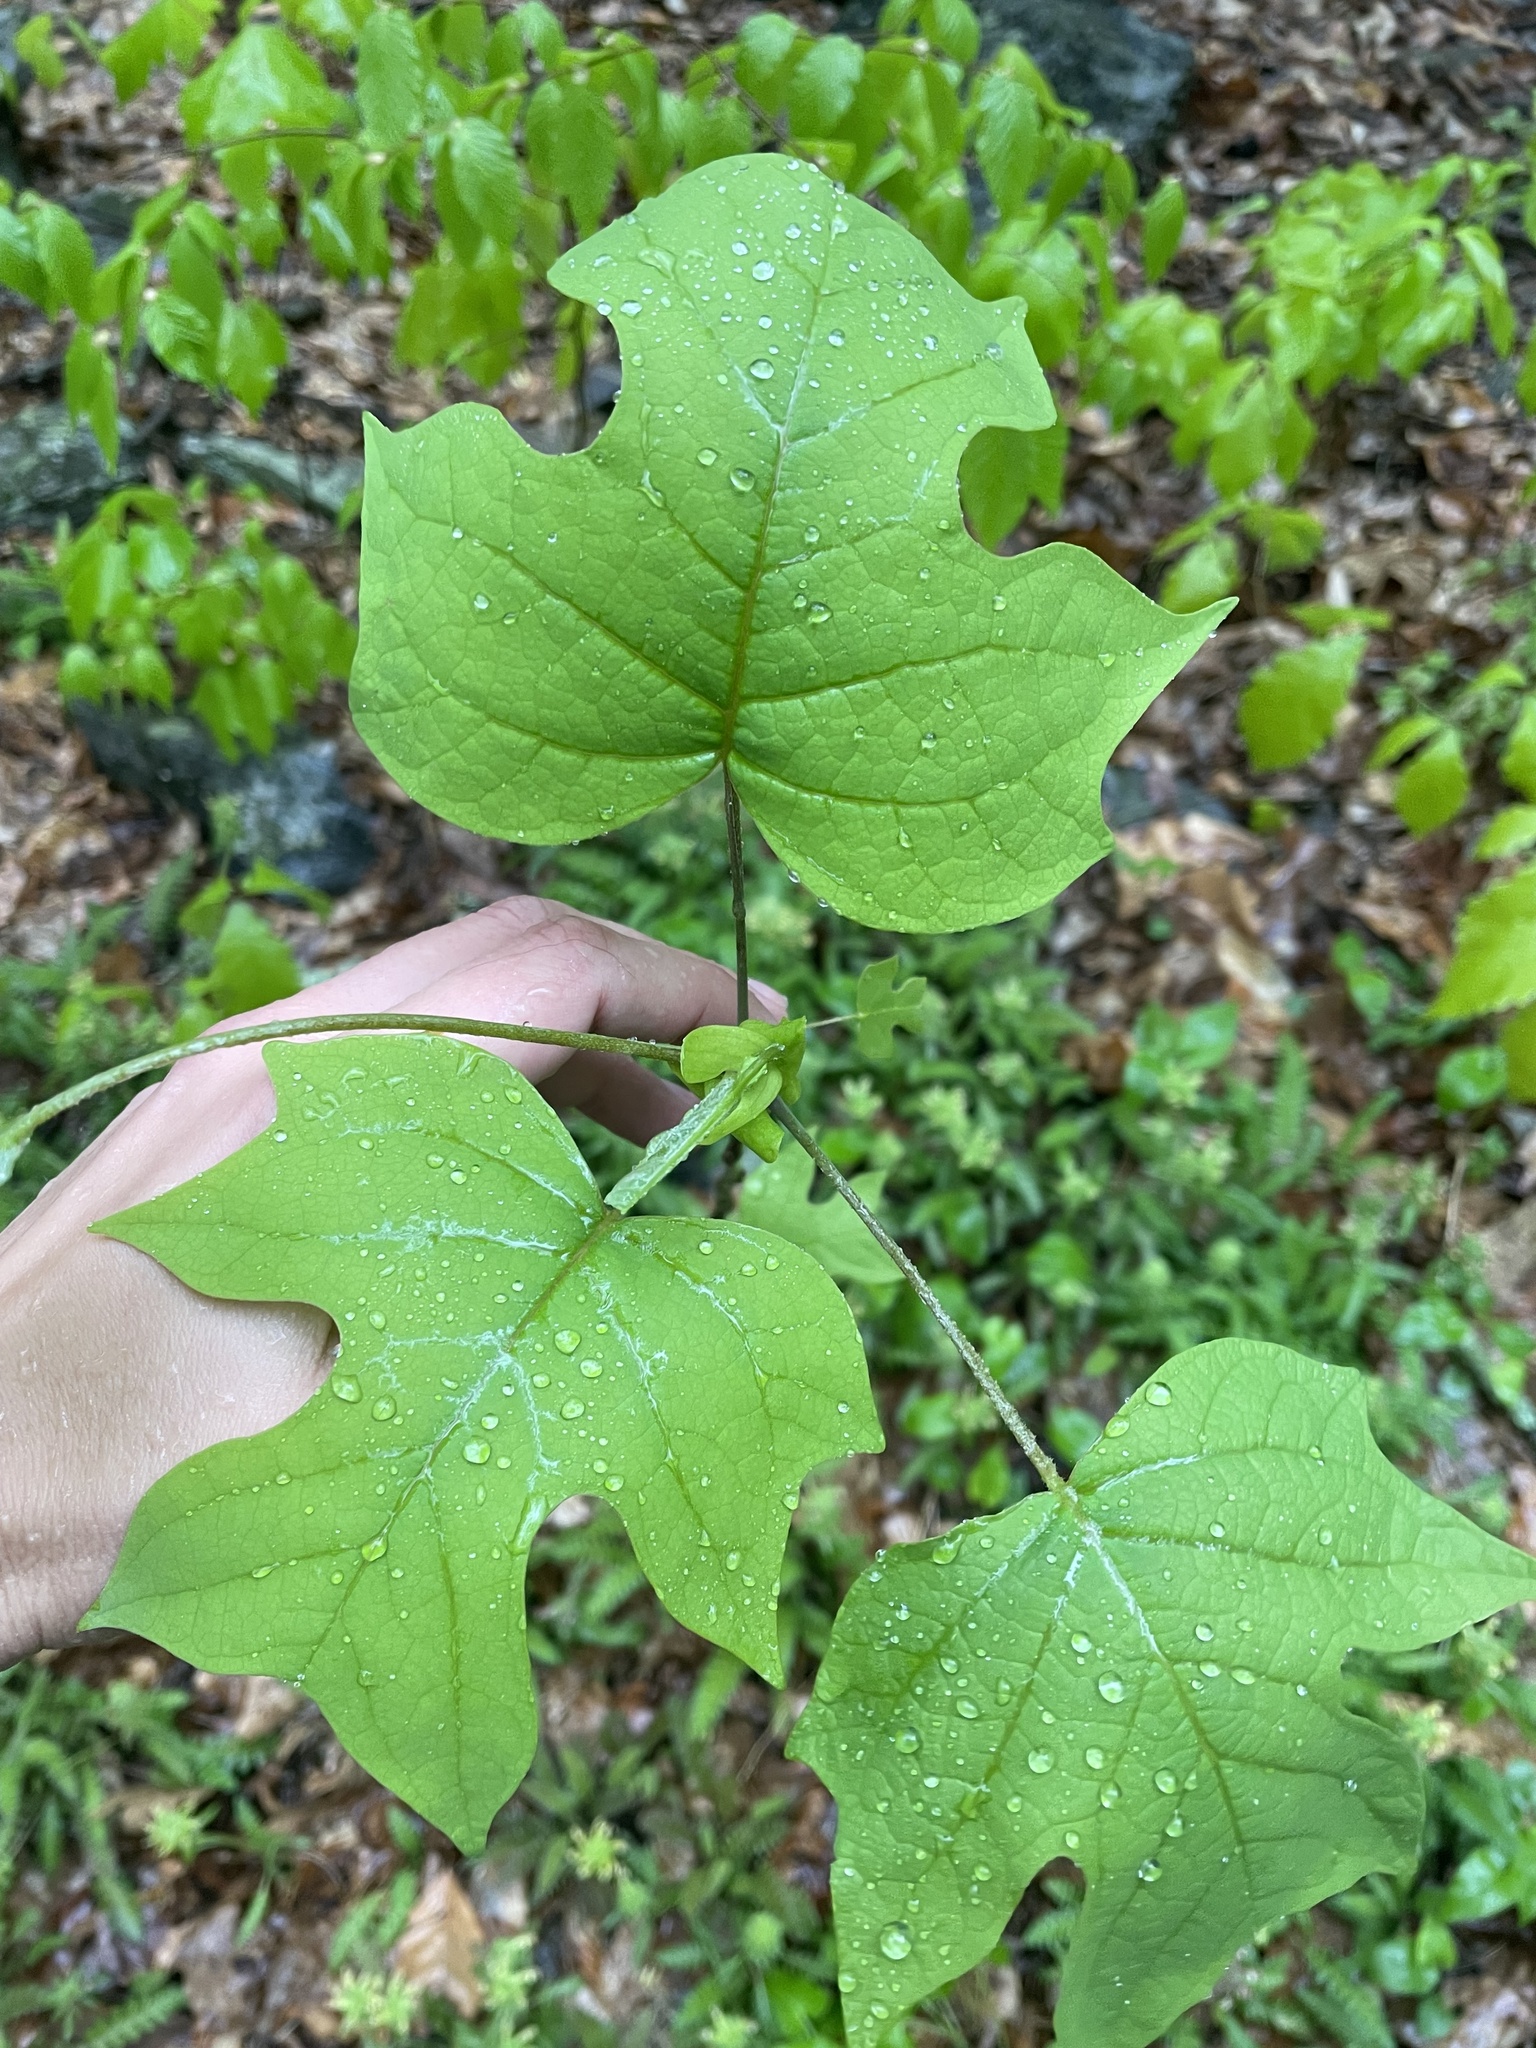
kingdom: Plantae
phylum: Tracheophyta
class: Magnoliopsida
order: Magnoliales
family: Magnoliaceae
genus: Liriodendron
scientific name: Liriodendron tulipifera
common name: Tulip tree
